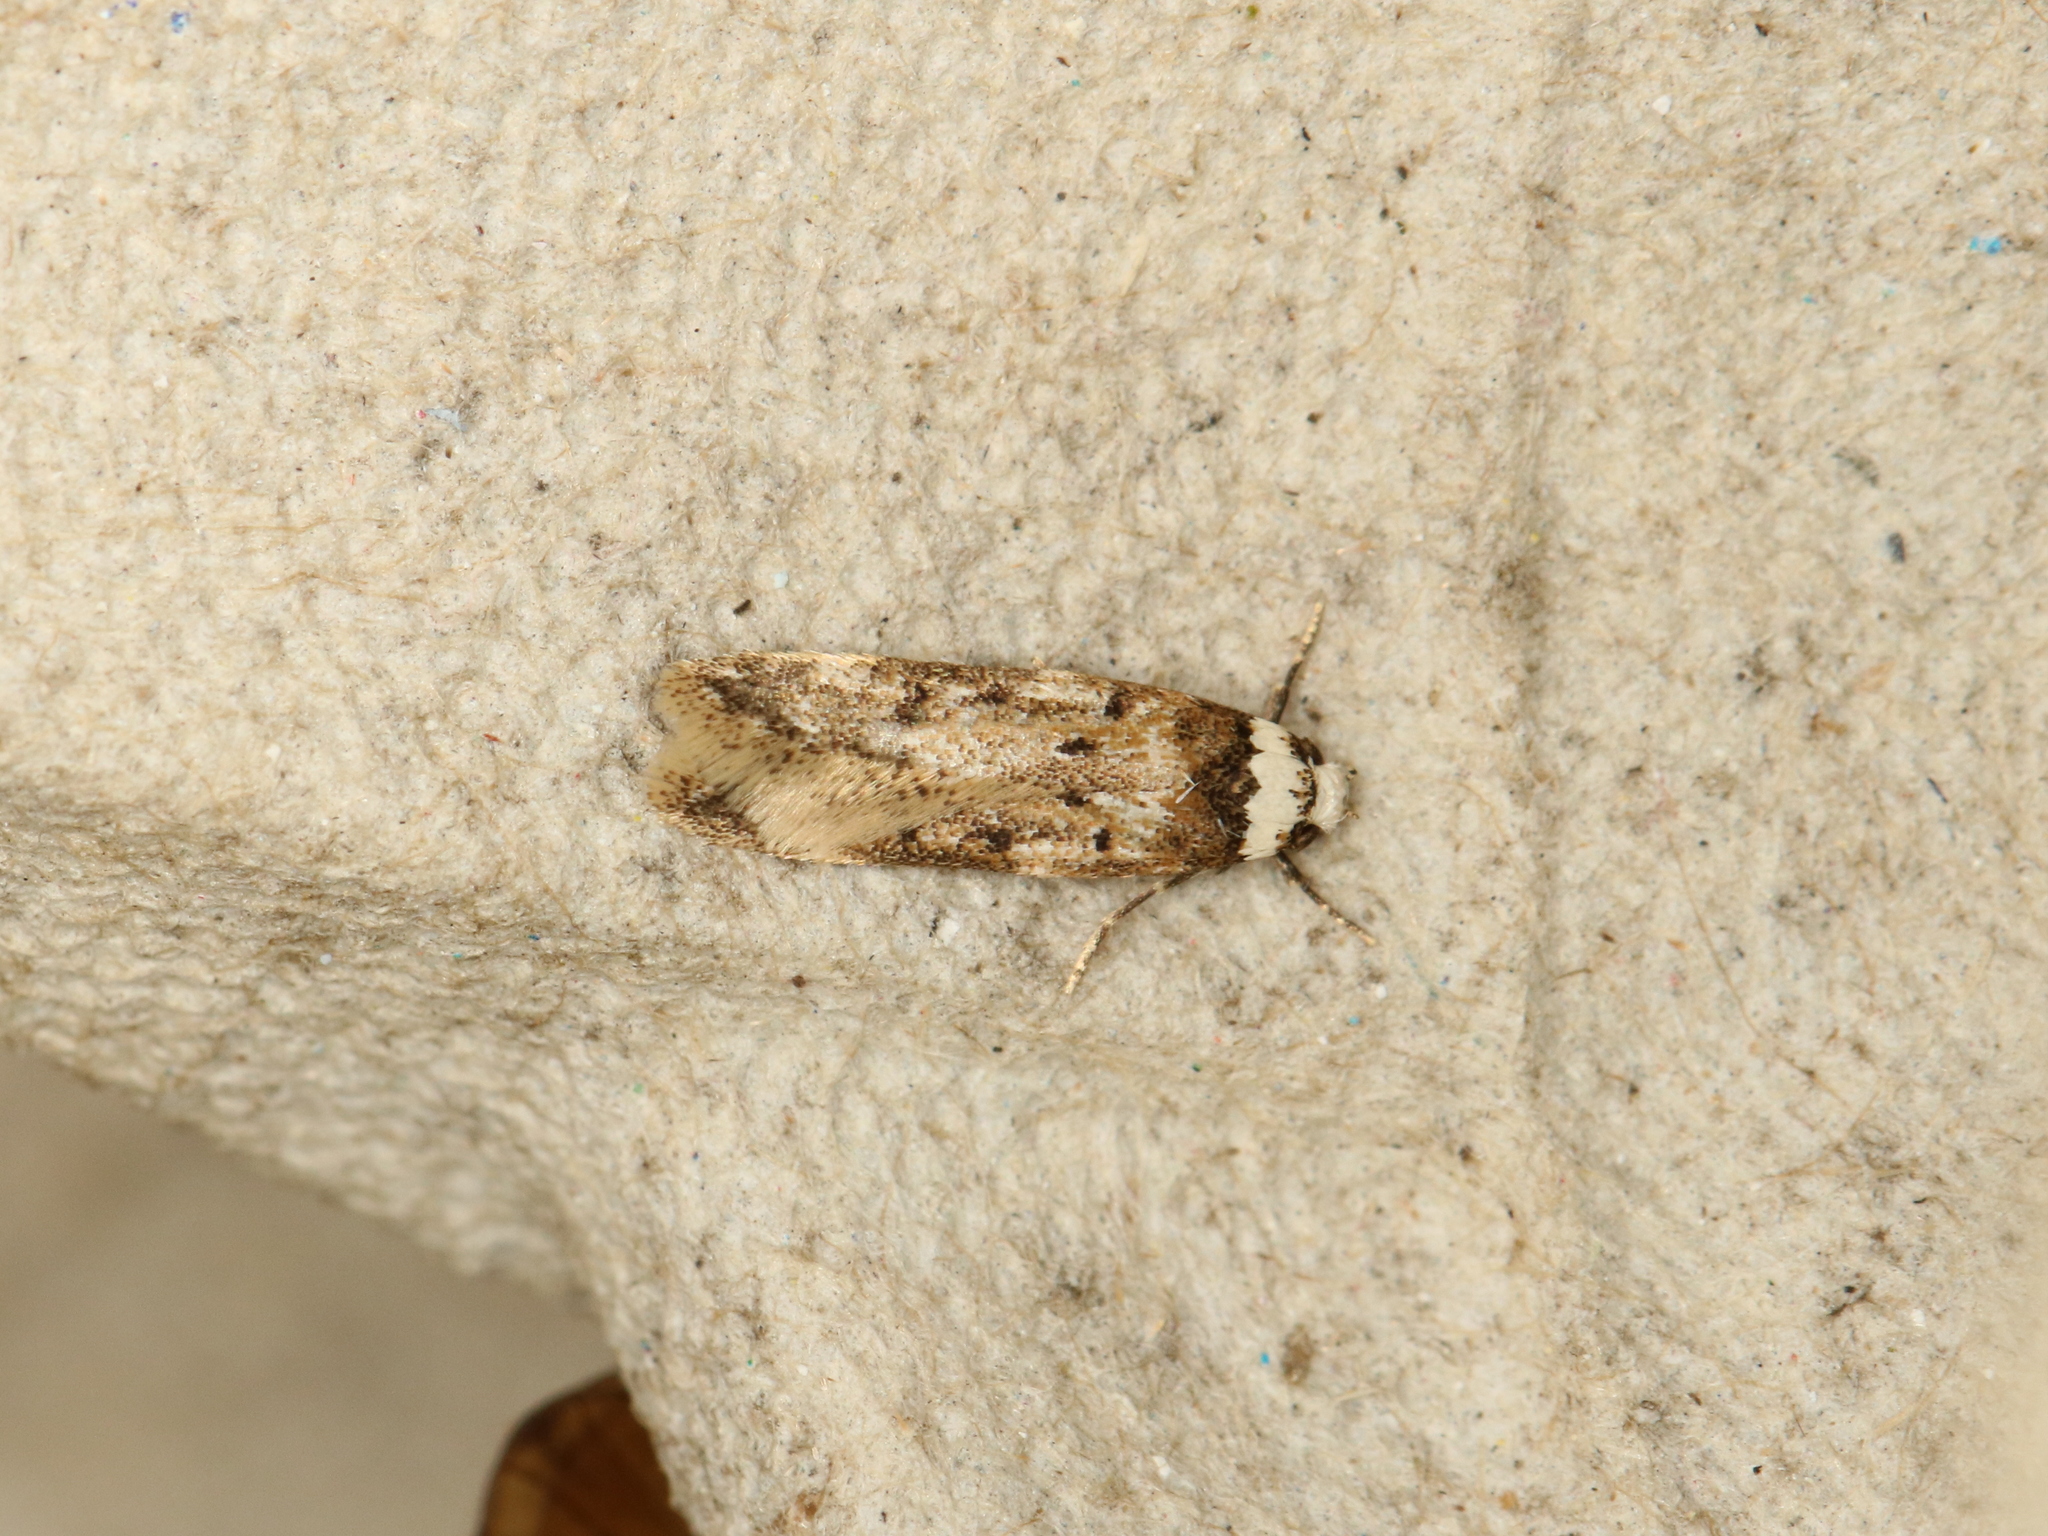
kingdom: Animalia
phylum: Arthropoda
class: Insecta
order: Lepidoptera
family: Oecophoridae
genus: Endrosis
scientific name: Endrosis sarcitrella
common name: White-shouldered house moth
